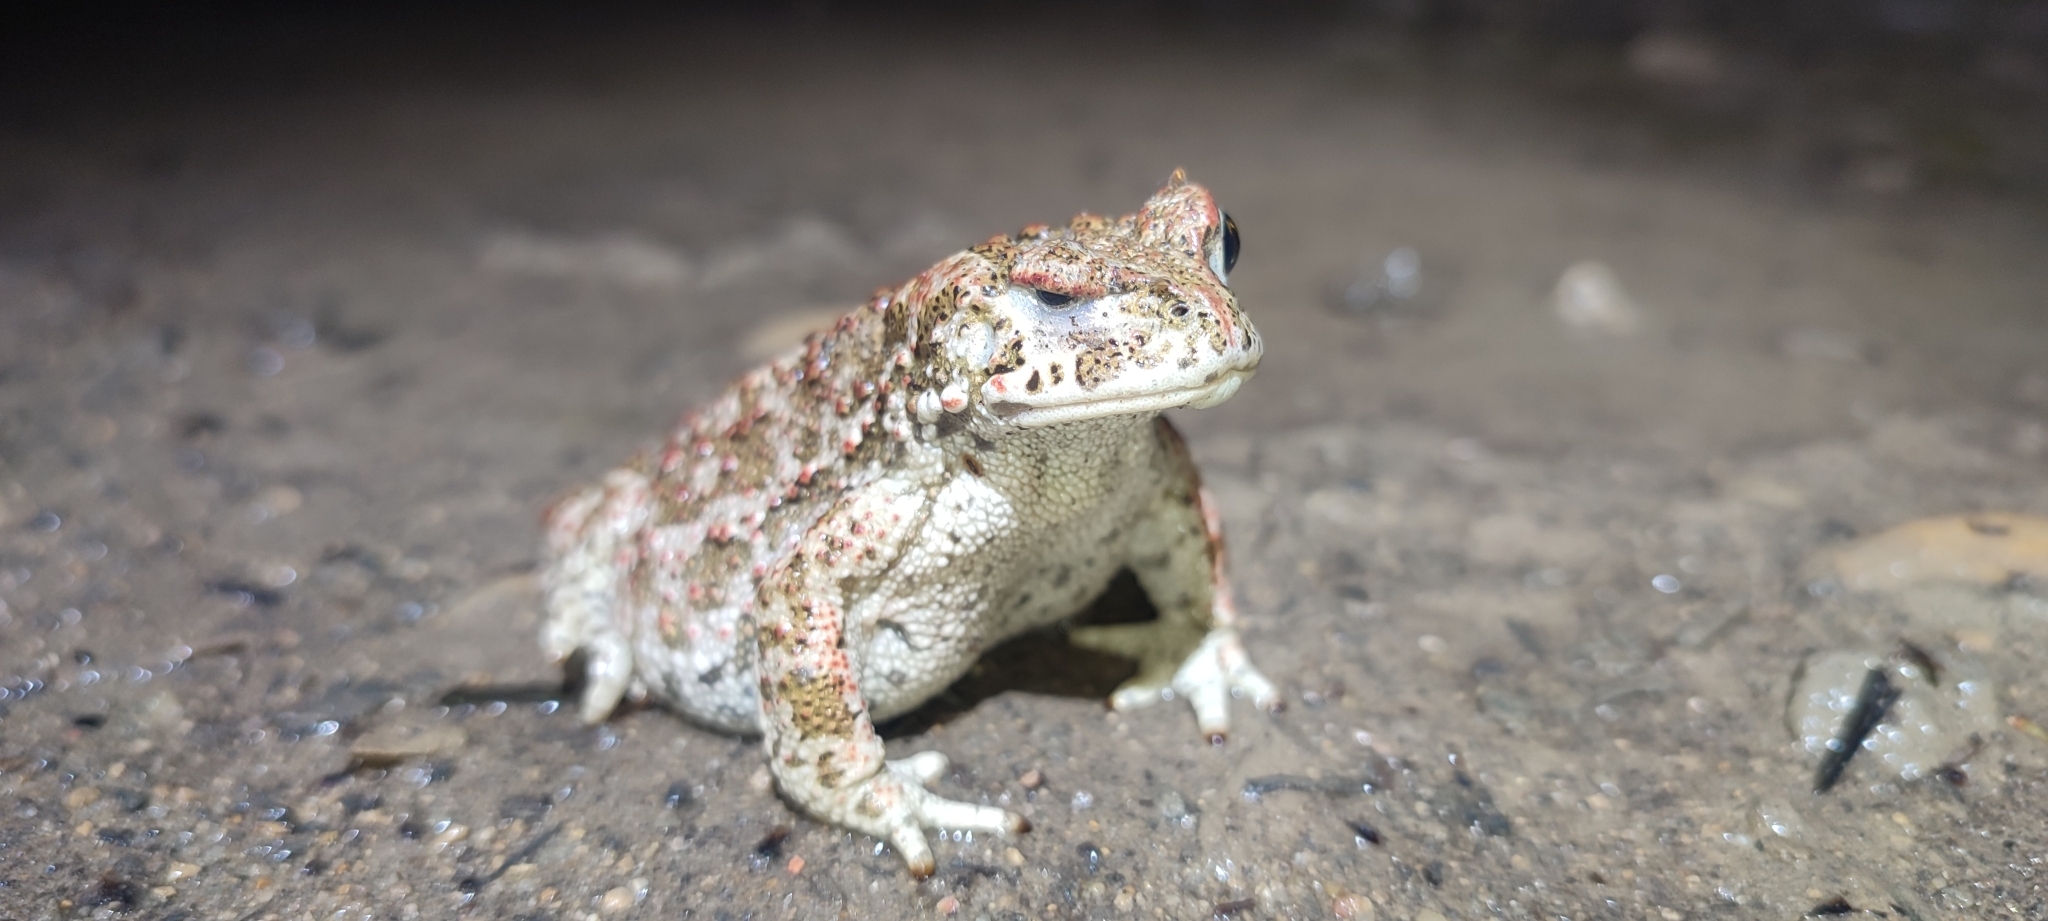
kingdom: Animalia
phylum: Chordata
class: Amphibia
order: Anura
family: Bufonidae
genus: Epidalea
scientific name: Epidalea calamita
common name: Natterjack toad
